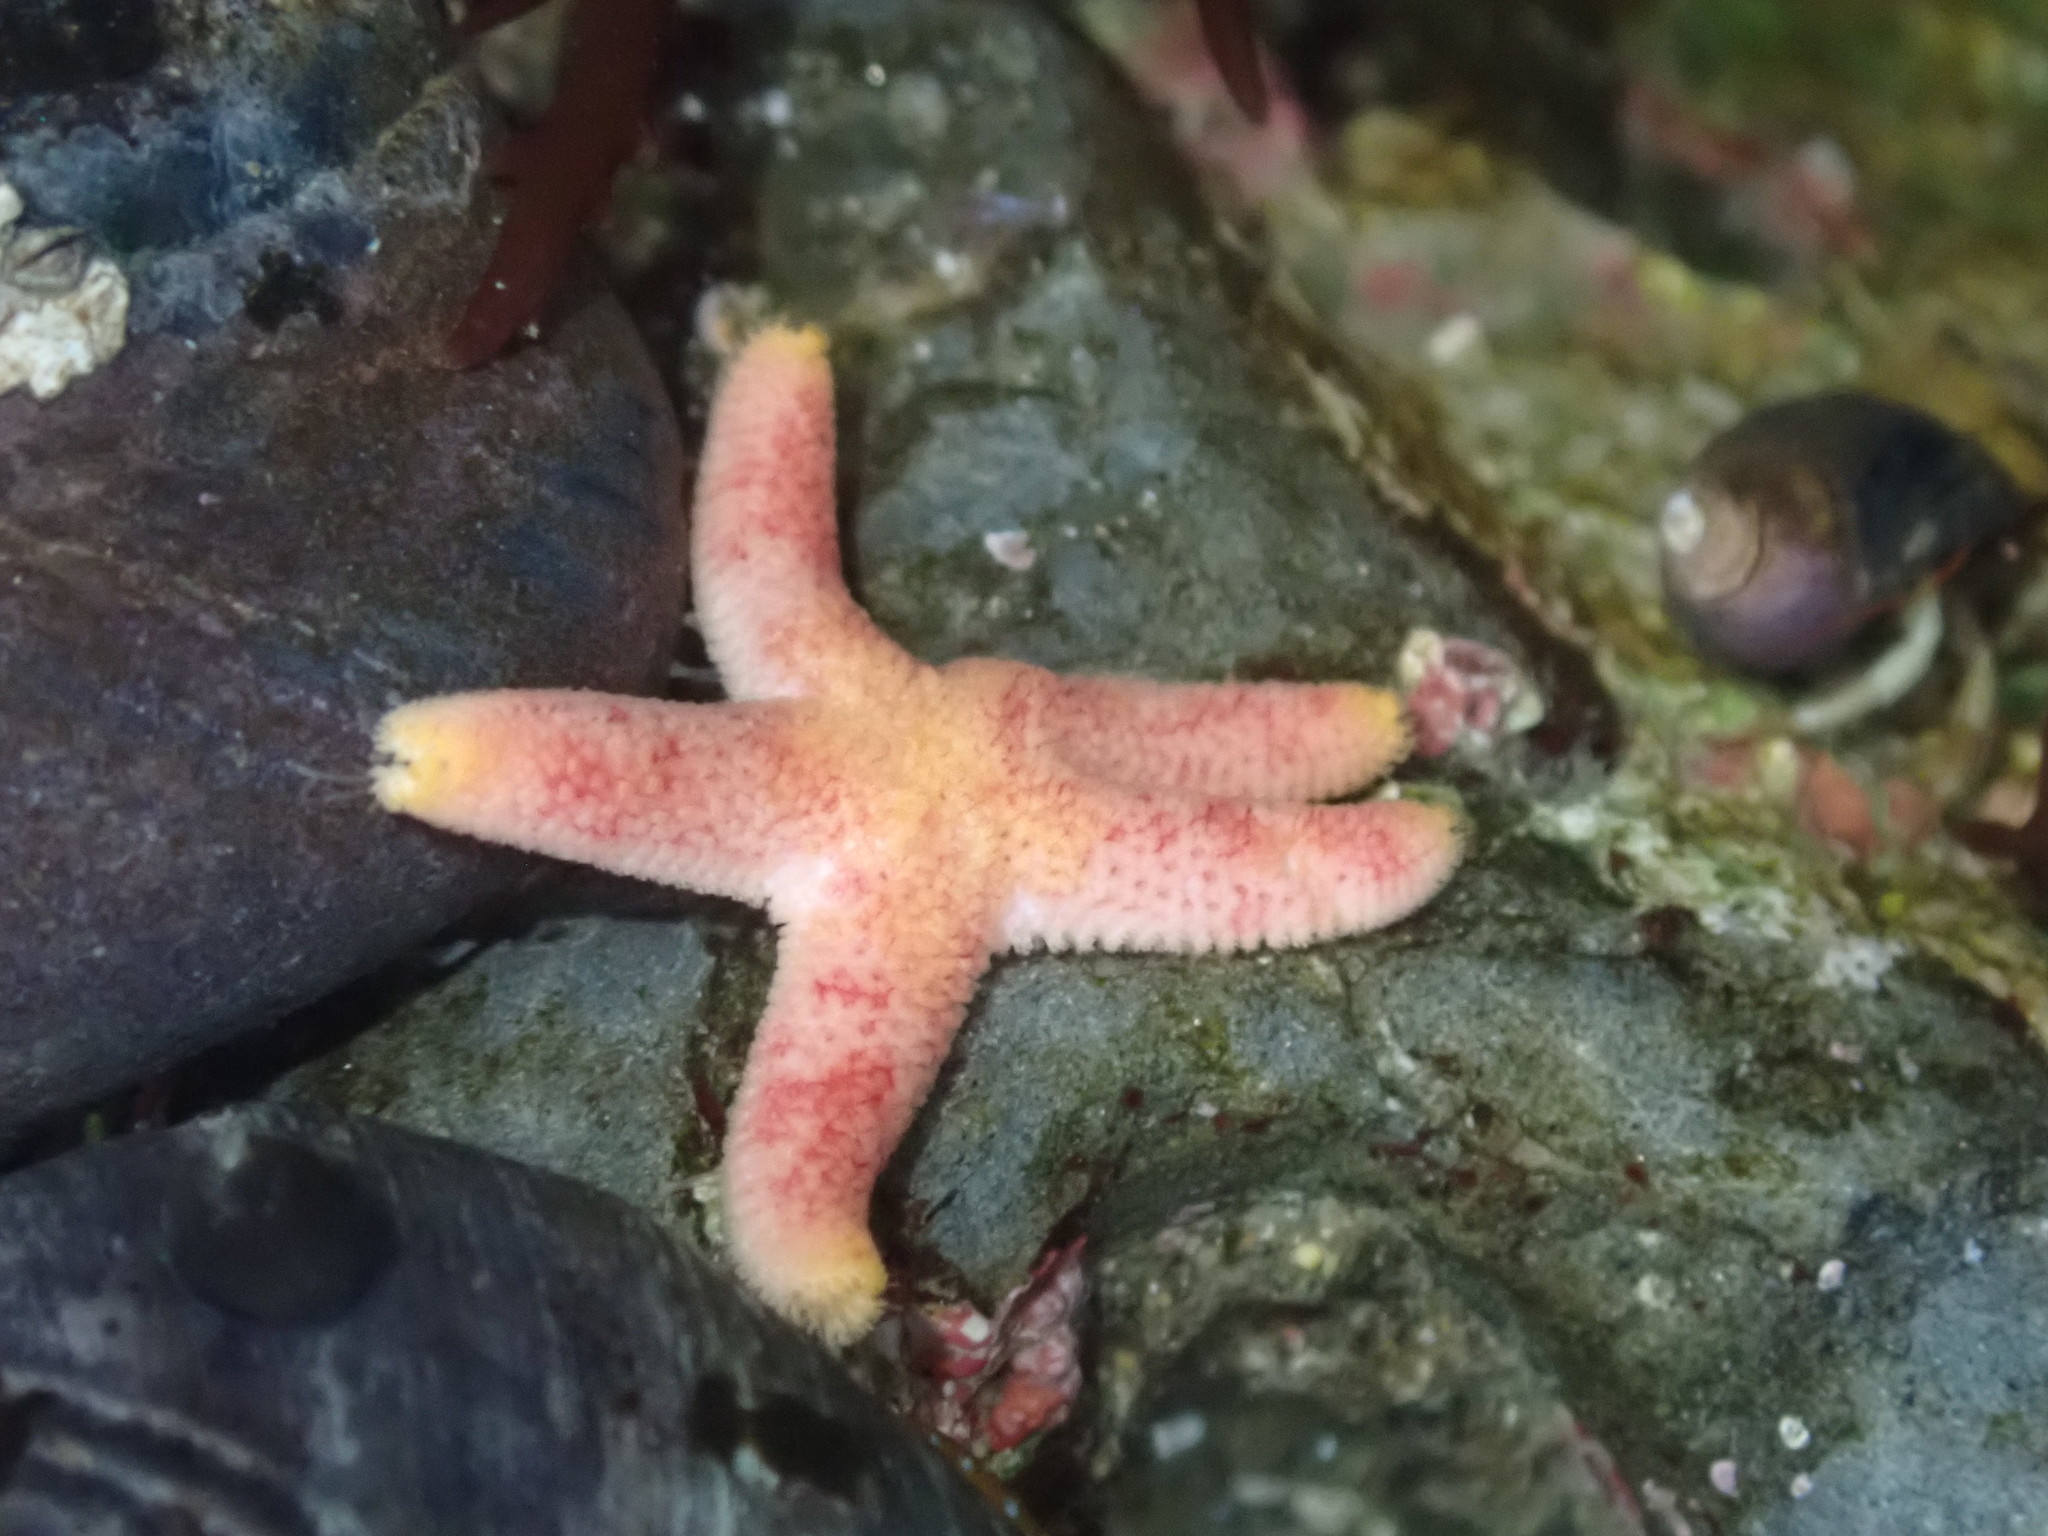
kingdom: Animalia
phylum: Echinodermata
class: Asteroidea
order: Spinulosida
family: Echinasteridae
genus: Henricia
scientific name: Henricia pumila
